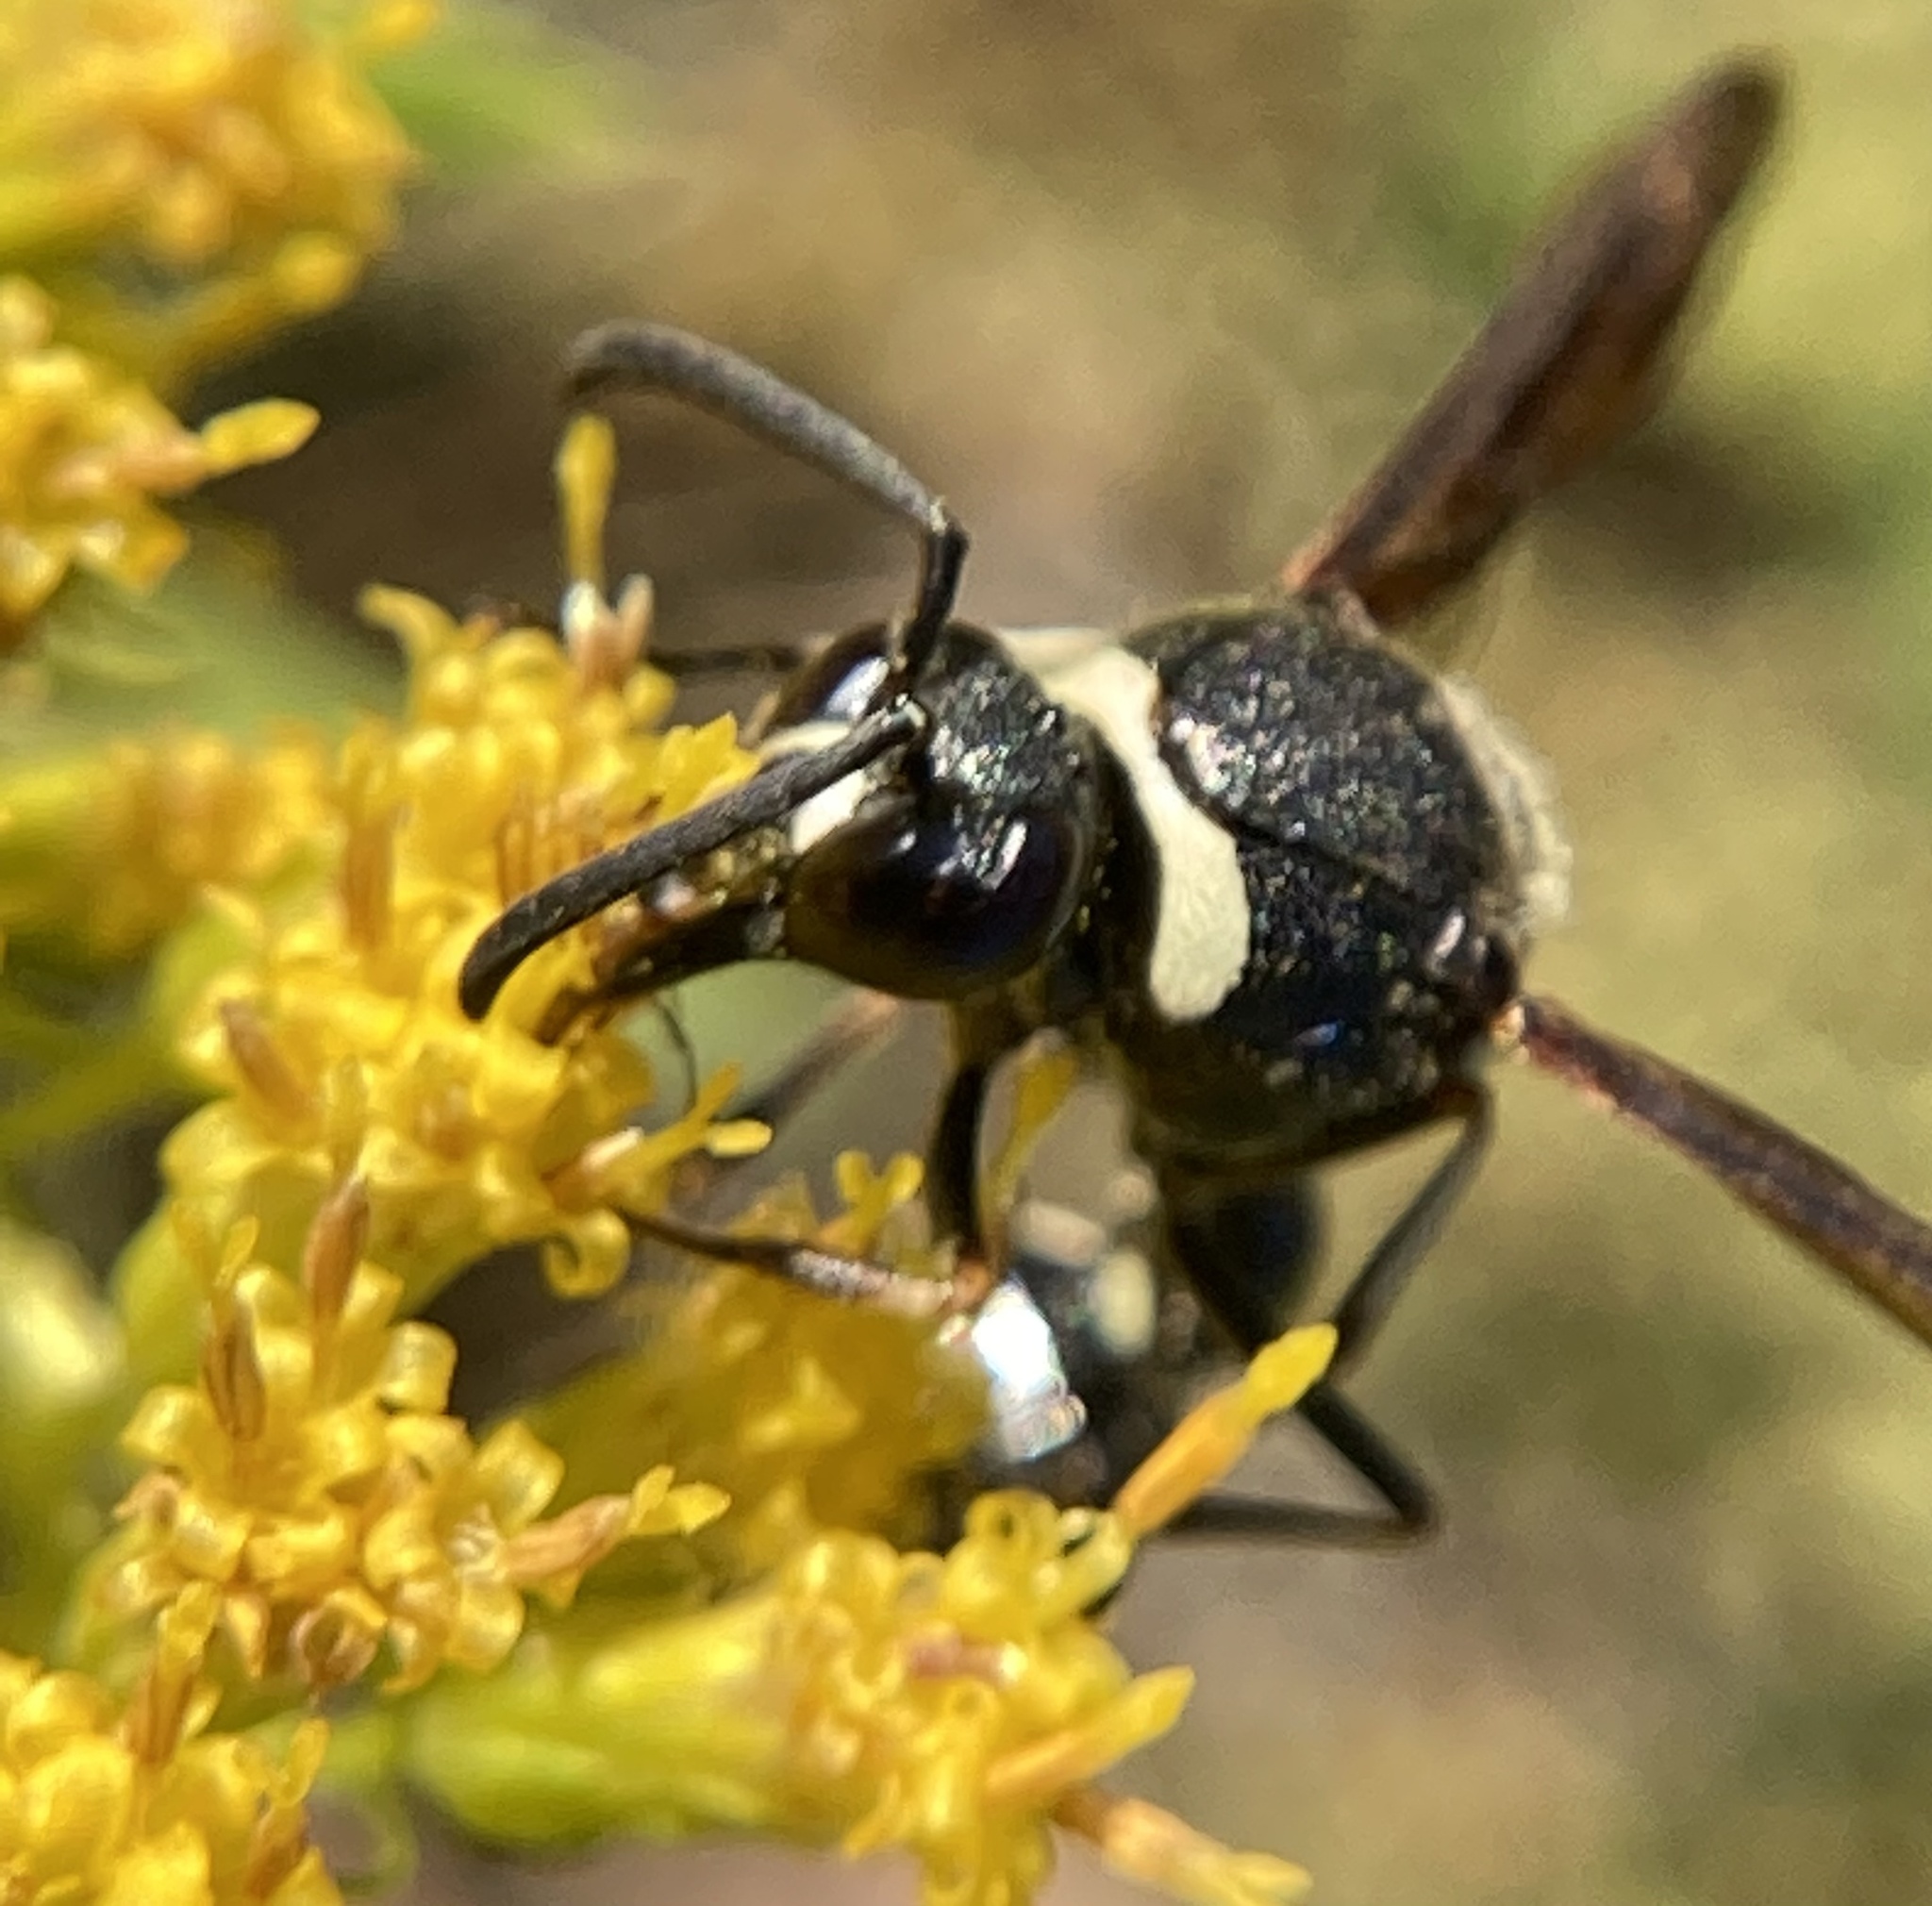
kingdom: Animalia
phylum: Arthropoda
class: Insecta
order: Hymenoptera
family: Vespidae
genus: Eumenes
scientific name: Eumenes fraternus
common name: Fraternal potter wasp
